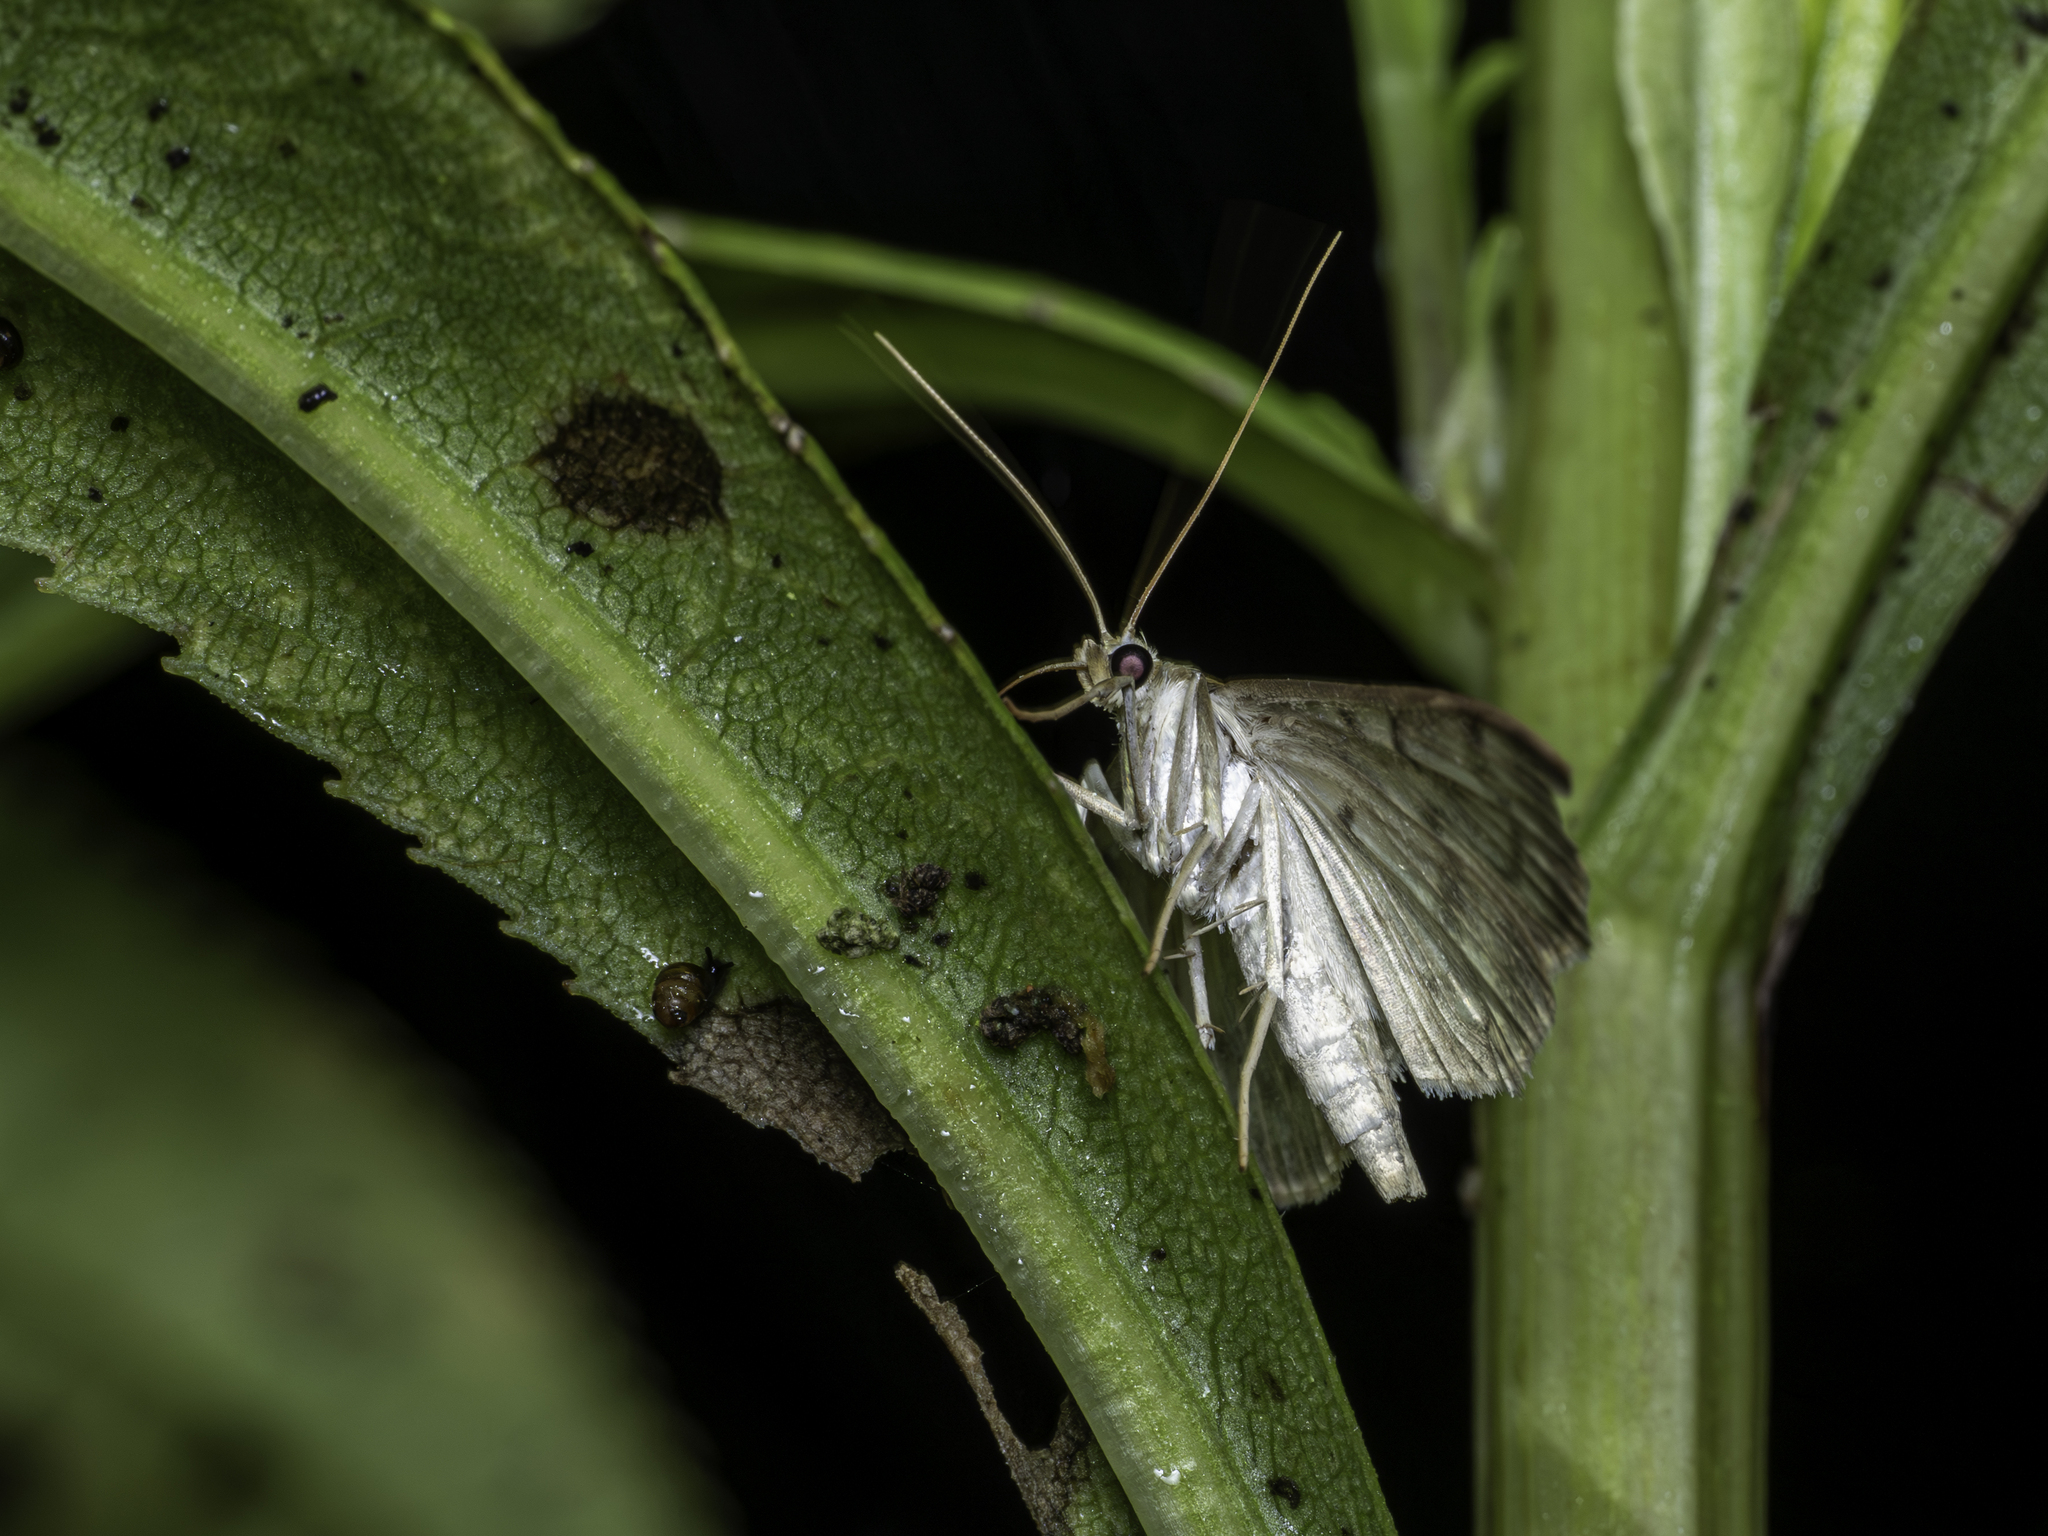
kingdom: Animalia
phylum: Arthropoda
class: Insecta
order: Lepidoptera
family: Crambidae
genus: Patania
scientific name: Patania ruralis
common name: Mother of pearl
